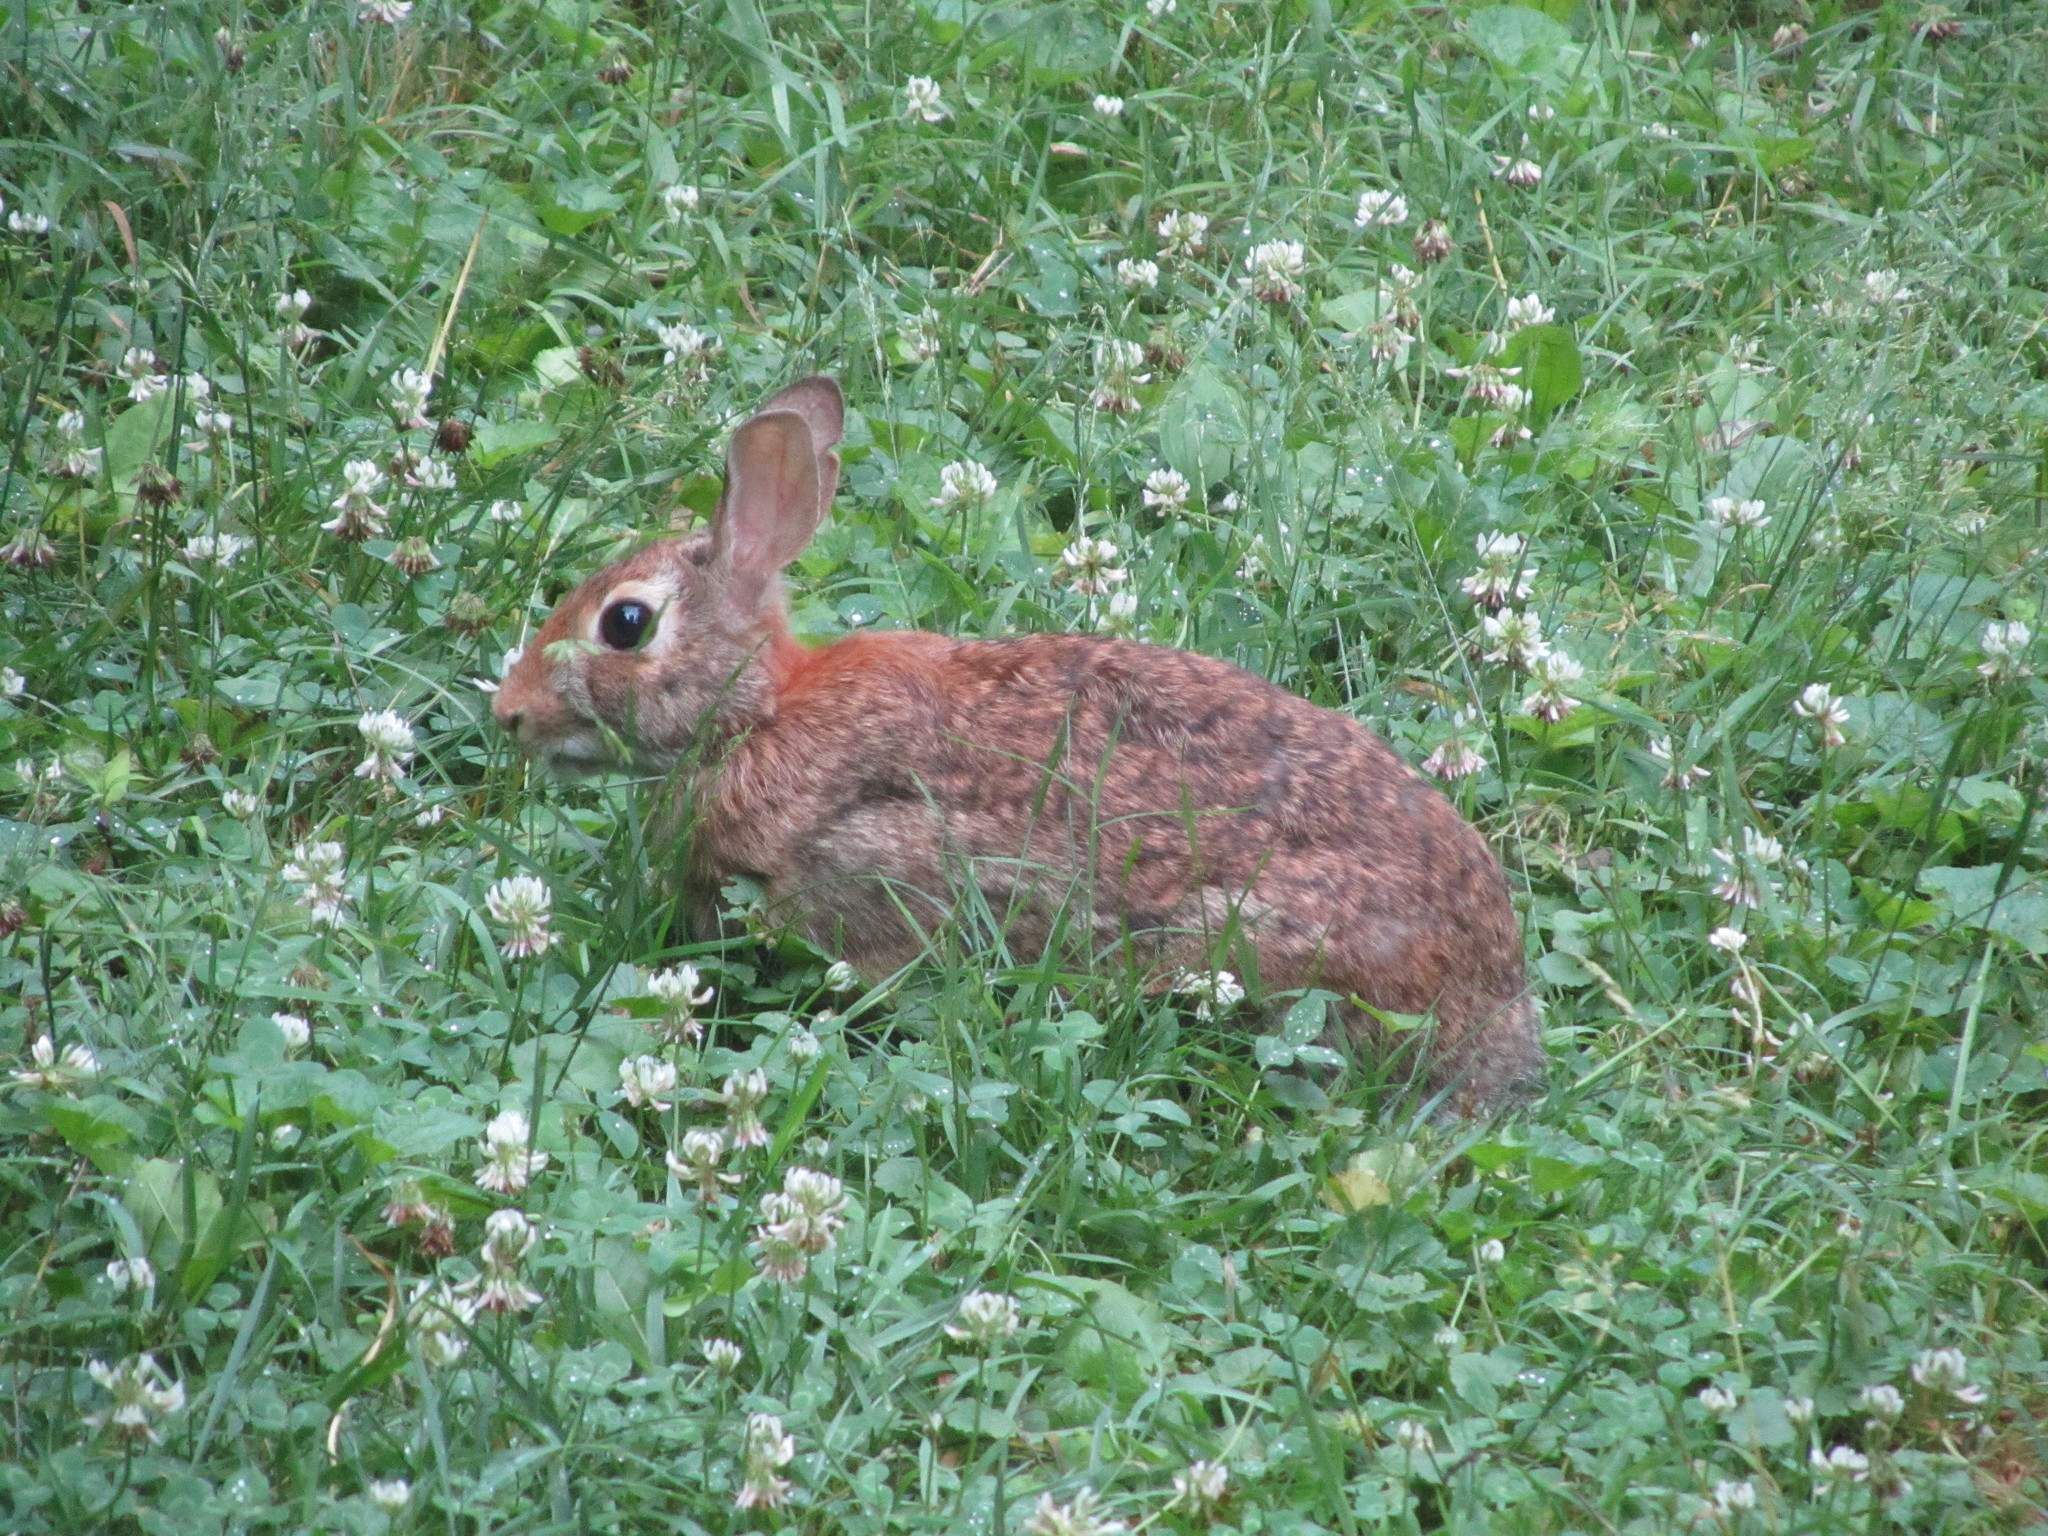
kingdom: Animalia
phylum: Chordata
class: Mammalia
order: Lagomorpha
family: Leporidae
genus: Sylvilagus
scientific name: Sylvilagus floridanus
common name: Eastern cottontail
